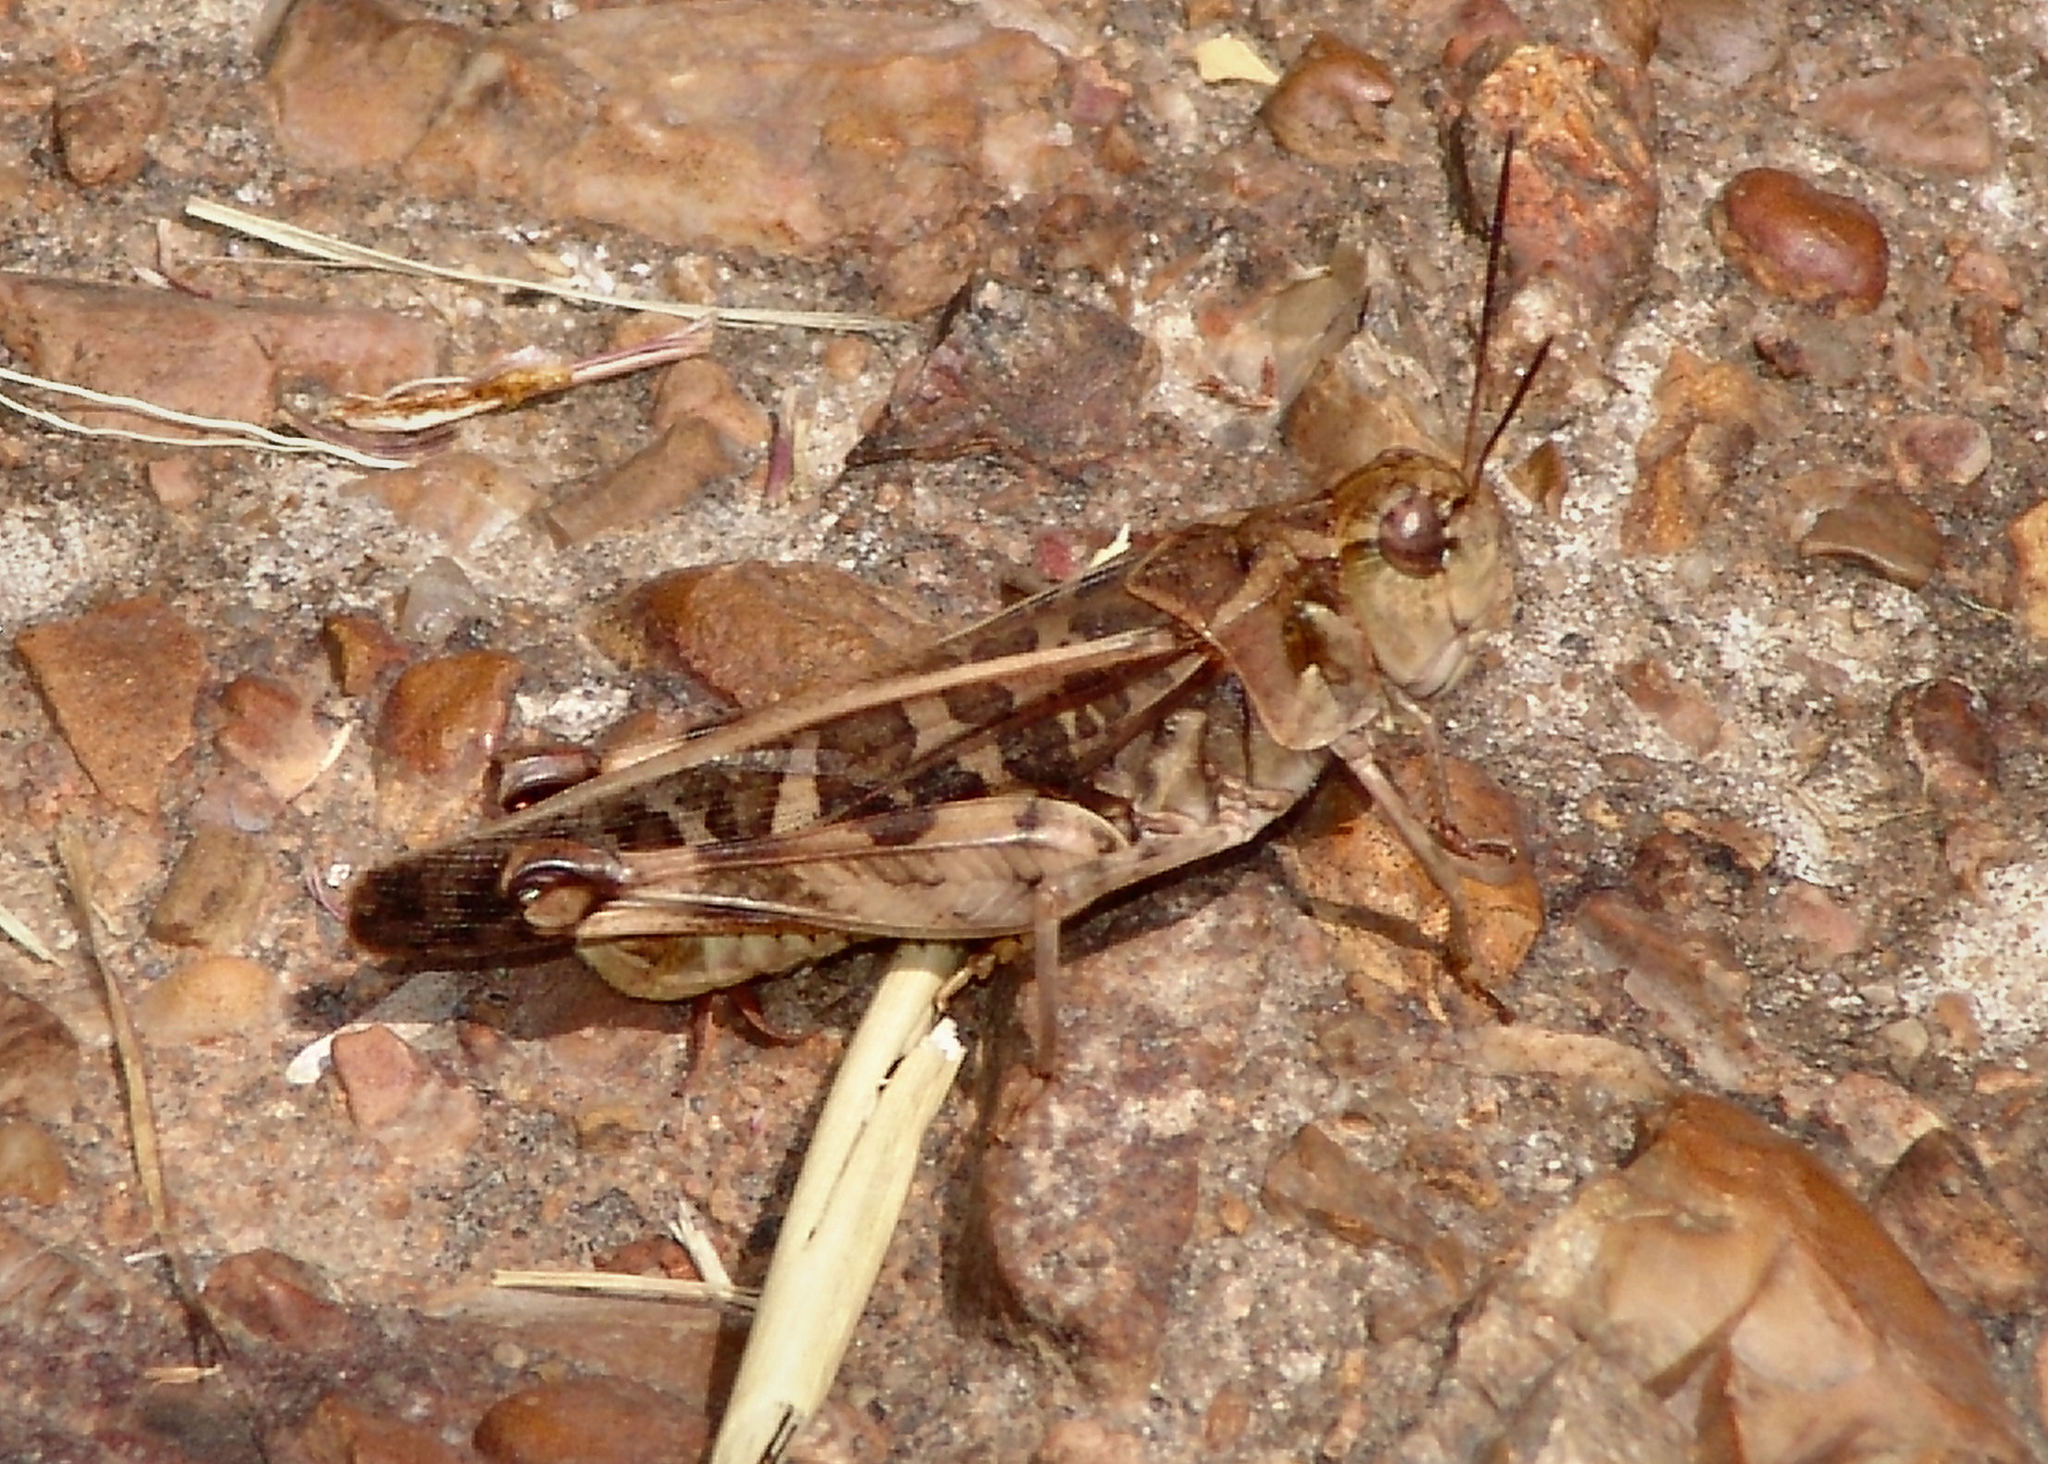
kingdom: Animalia
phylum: Arthropoda
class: Insecta
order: Orthoptera
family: Acrididae
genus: Hippiscus
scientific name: Hippiscus ocelote
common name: Wrinkled grasshopper
